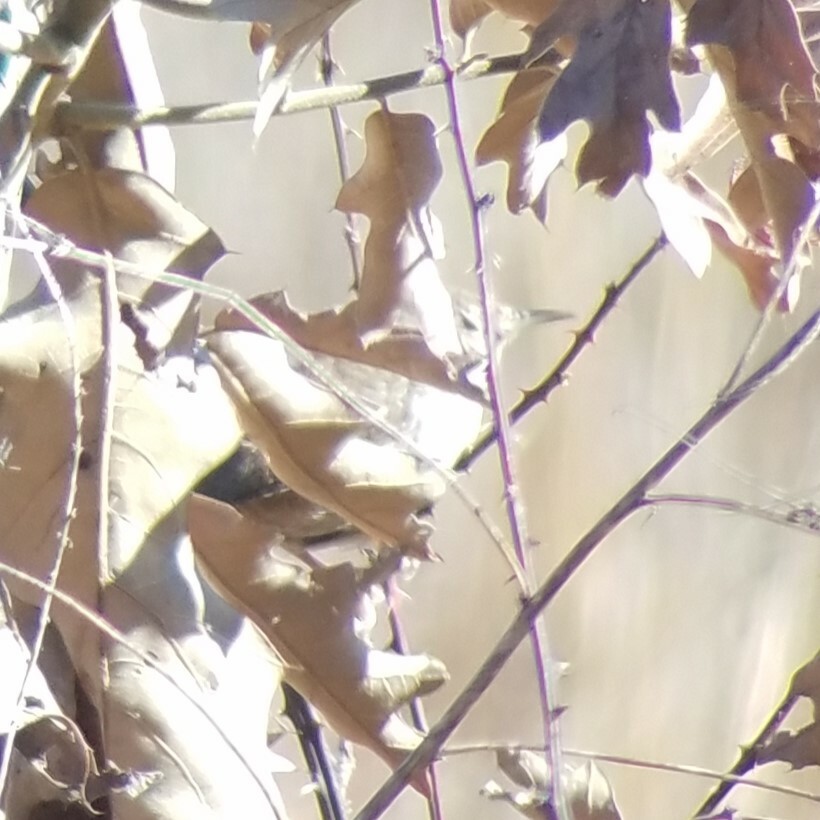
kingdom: Animalia
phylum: Chordata
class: Aves
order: Passeriformes
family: Troglodytidae
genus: Troglodytes
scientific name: Troglodytes aedon
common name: House wren
